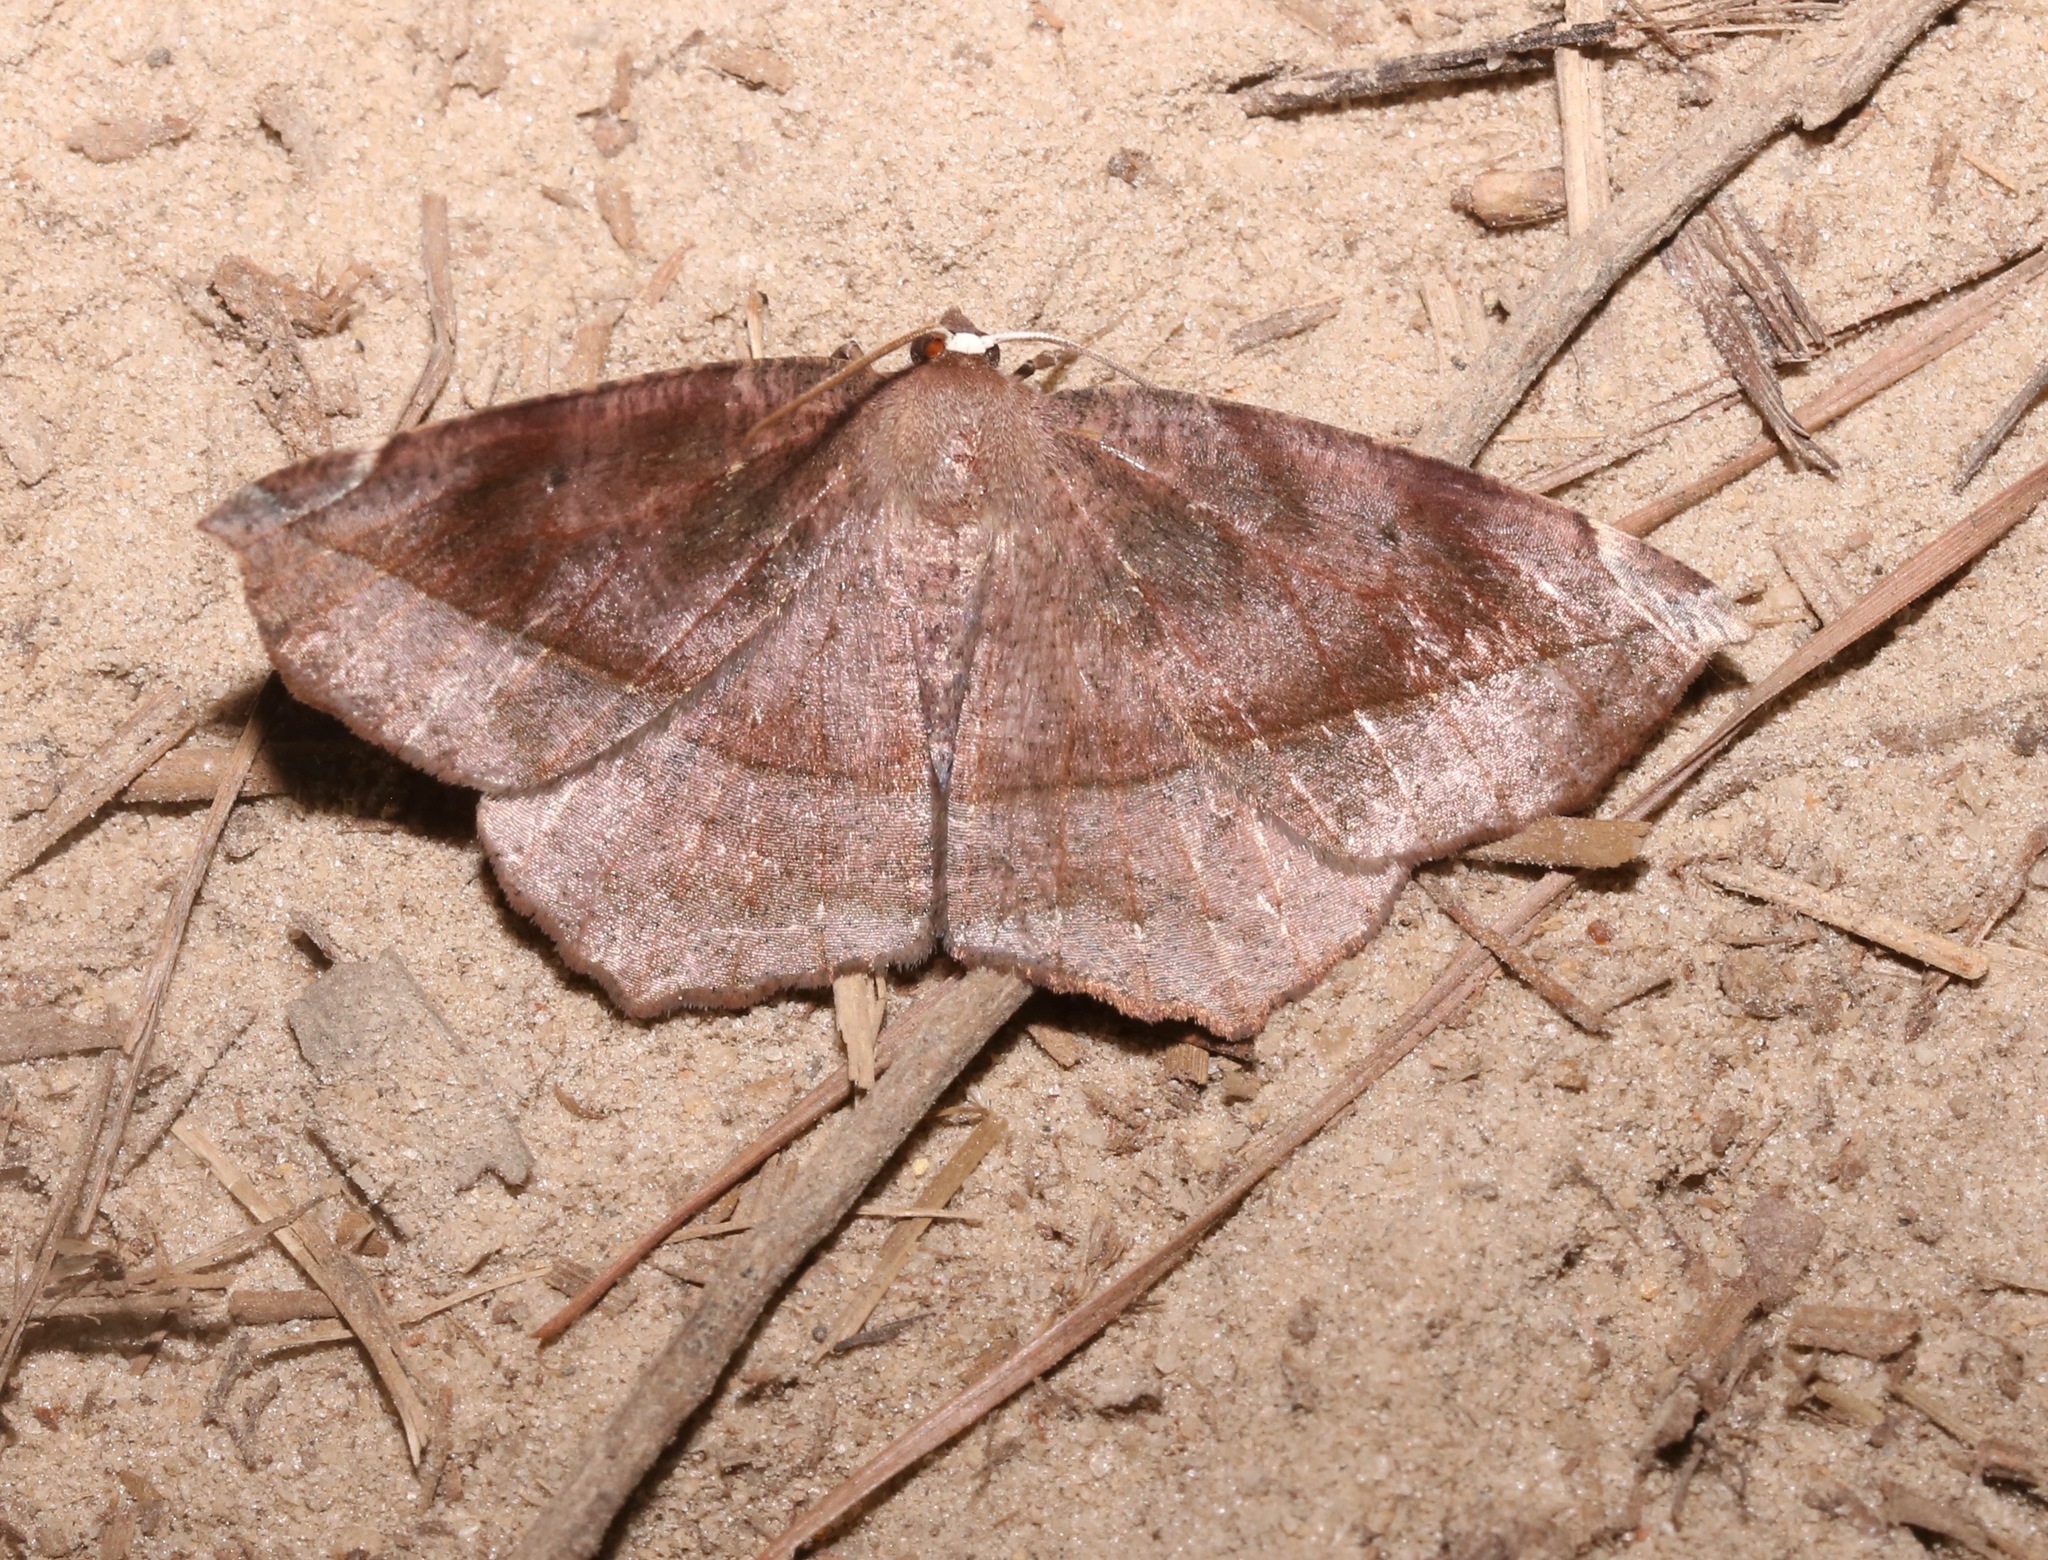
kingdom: Animalia
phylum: Arthropoda
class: Insecta
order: Lepidoptera
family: Geometridae
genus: Eutrapela
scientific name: Eutrapela clemataria
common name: Curved-toothed geometer
